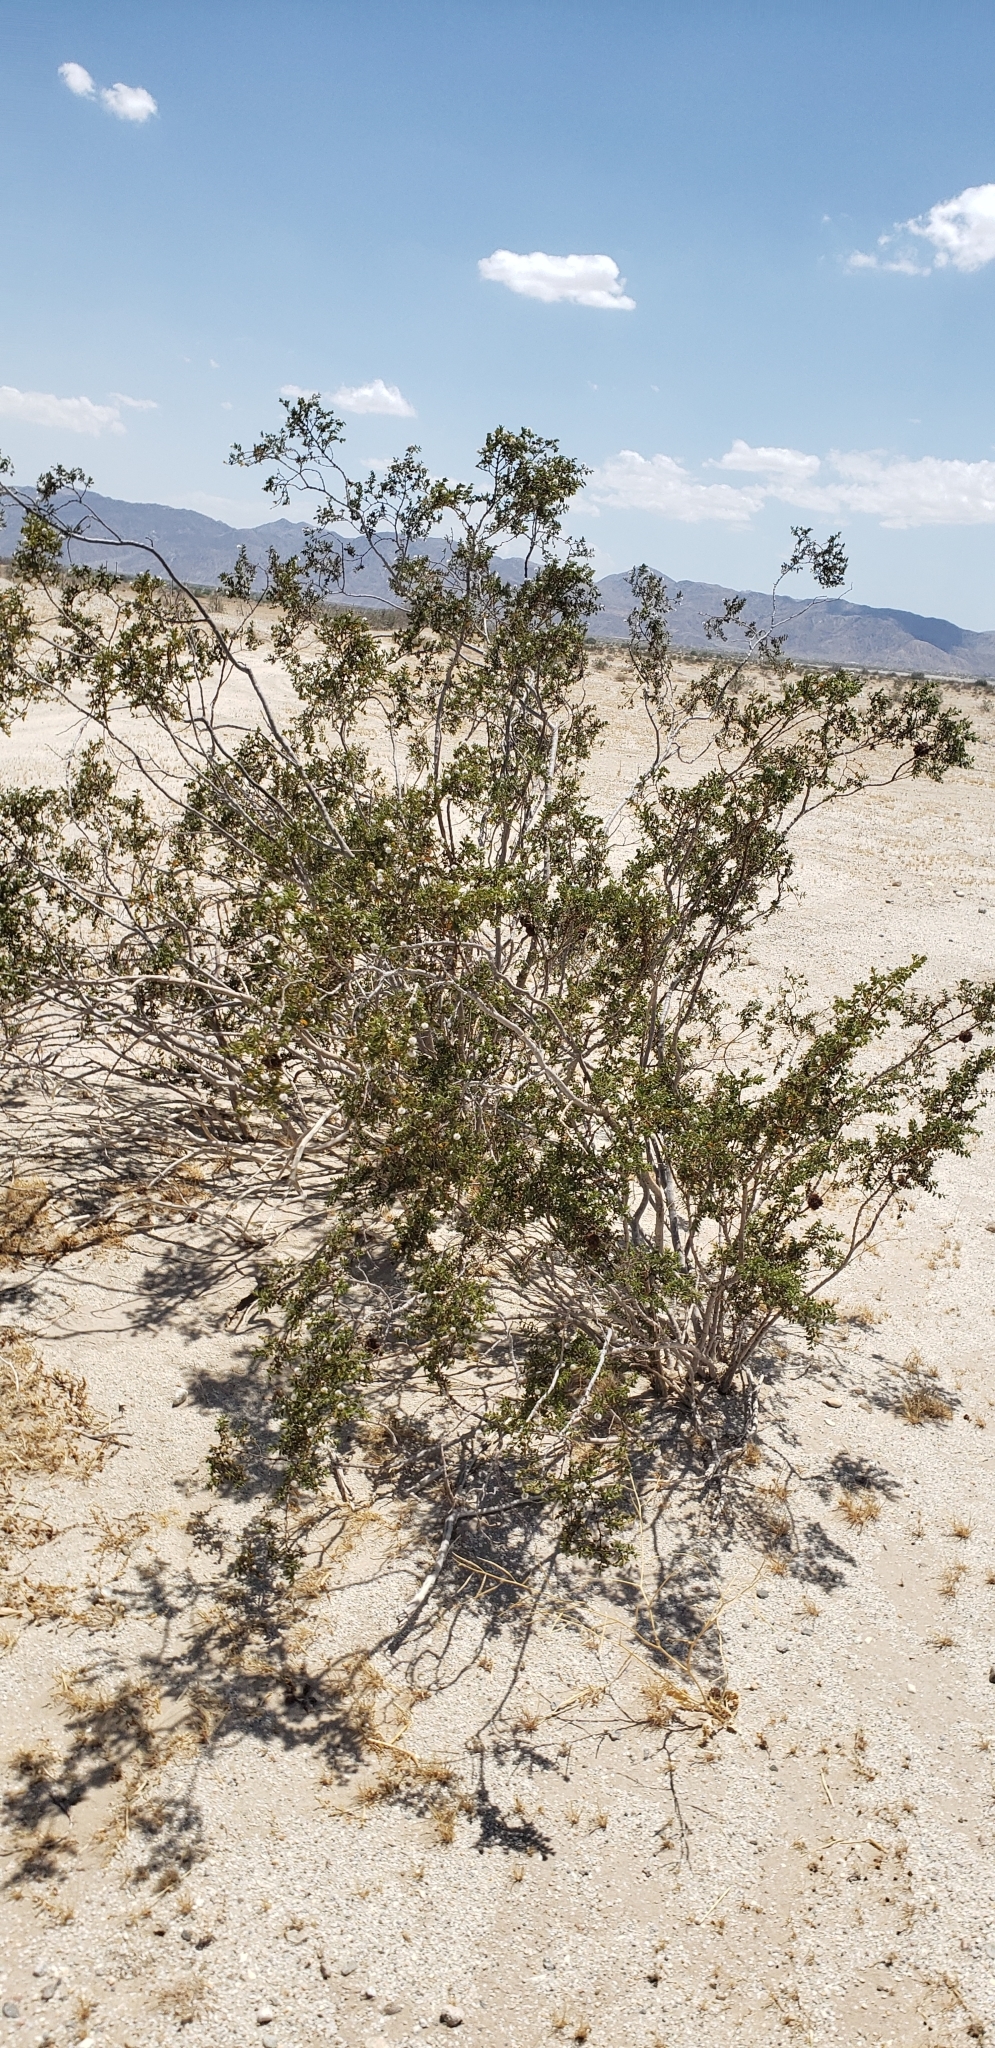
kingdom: Plantae
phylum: Tracheophyta
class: Magnoliopsida
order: Zygophyllales
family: Zygophyllaceae
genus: Larrea
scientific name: Larrea tridentata
